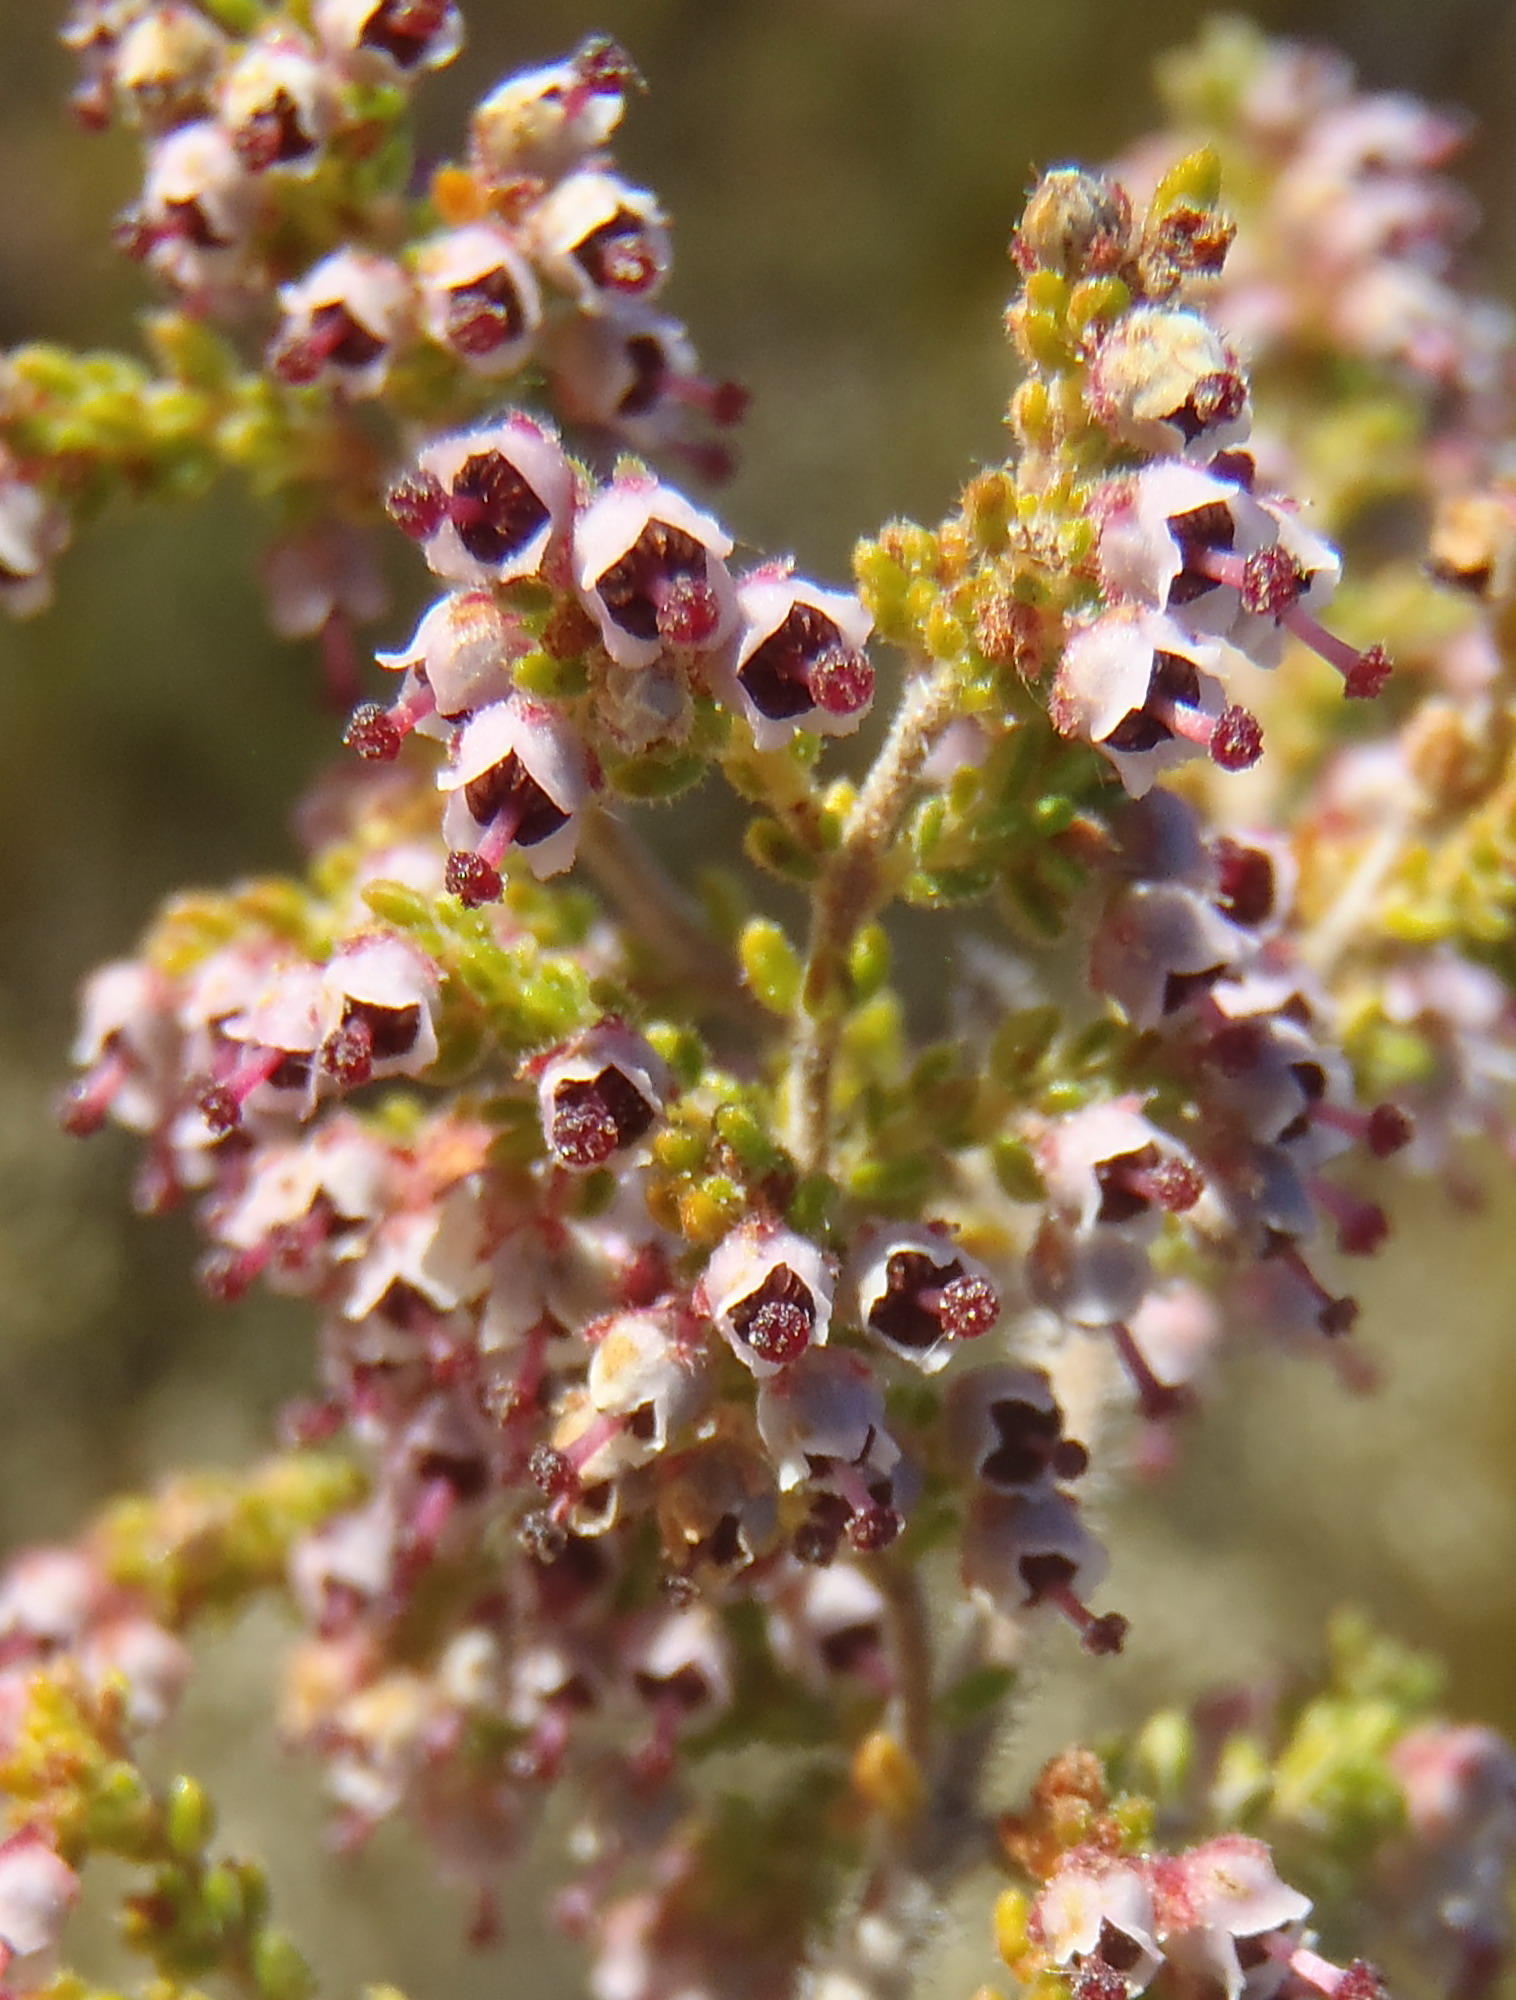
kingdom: Plantae
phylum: Tracheophyta
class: Magnoliopsida
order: Ericales
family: Ericaceae
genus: Erica
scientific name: Erica copiosa
